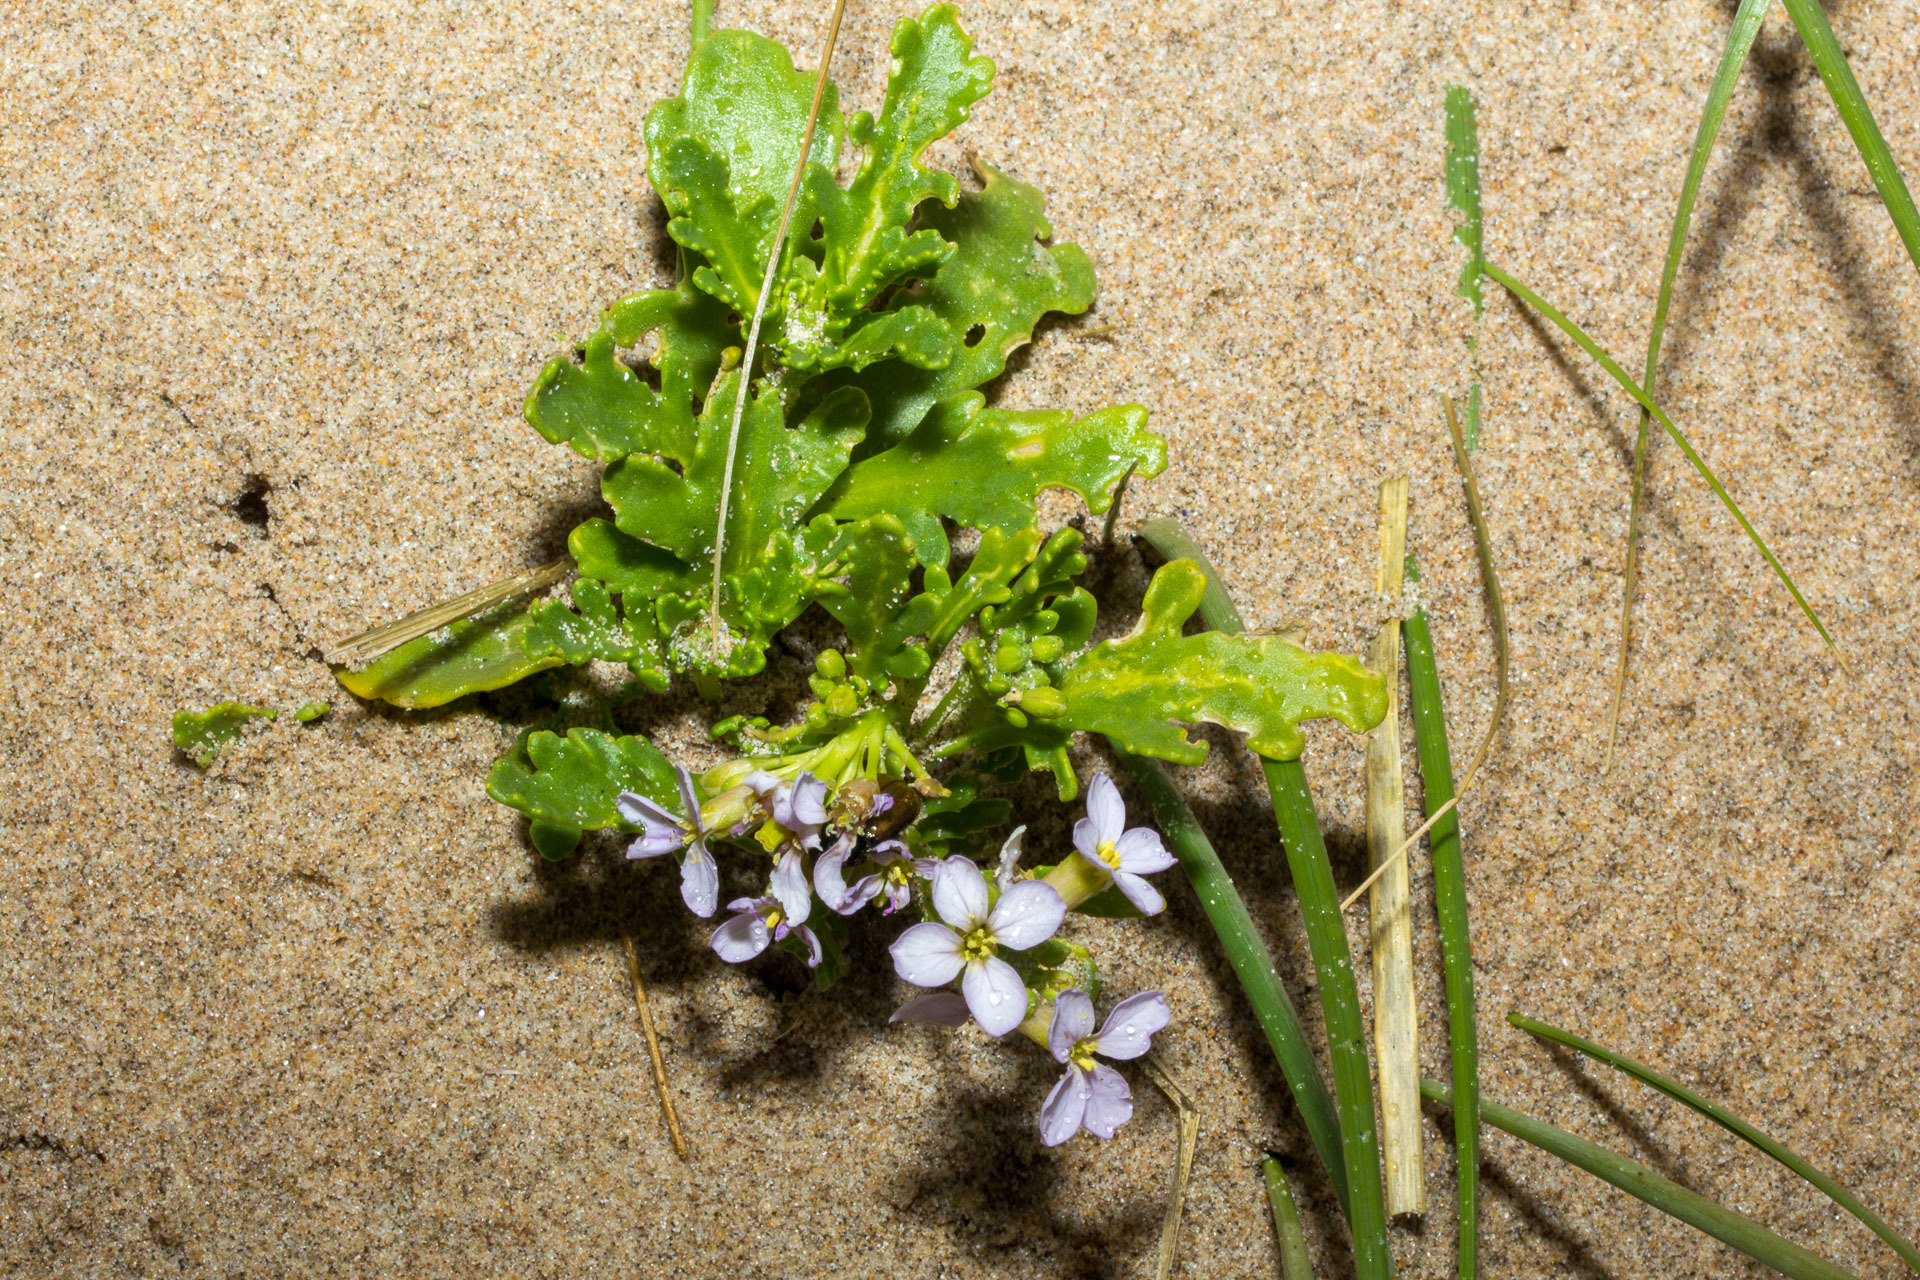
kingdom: Plantae
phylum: Tracheophyta
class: Magnoliopsida
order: Brassicales
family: Brassicaceae
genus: Cakile
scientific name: Cakile maritima
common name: Sea rocket
